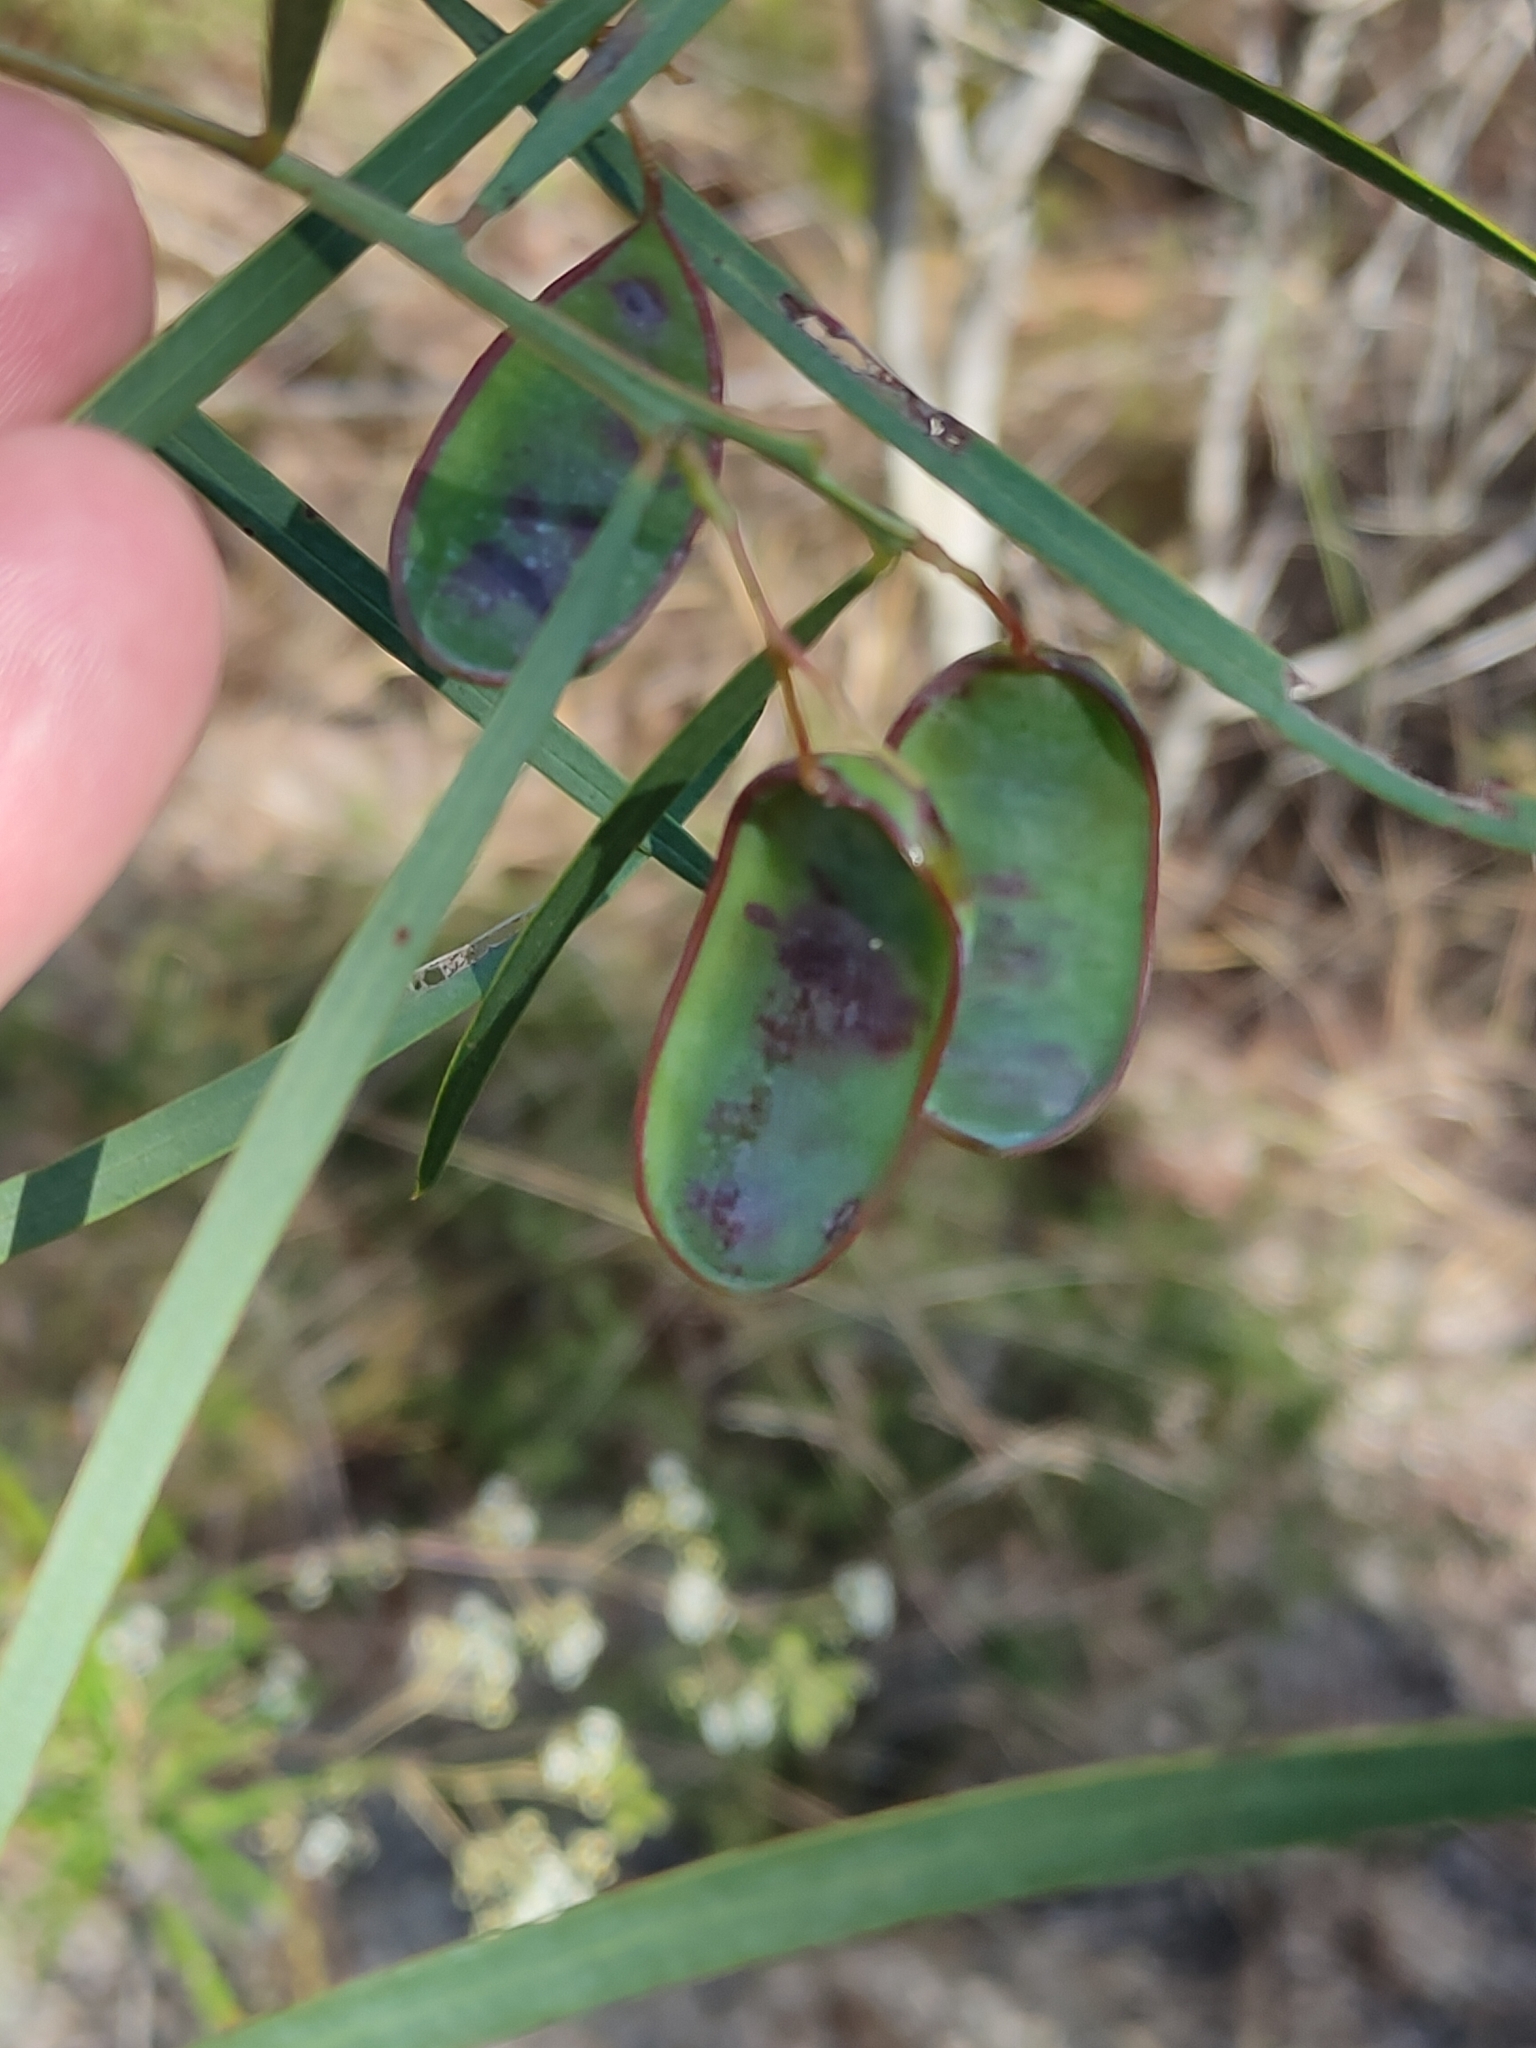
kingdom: Plantae
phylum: Tracheophyta
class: Magnoliopsida
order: Fabales
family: Fabaceae
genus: Acacia
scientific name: Acacia suaveolens
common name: Sweet acacia
